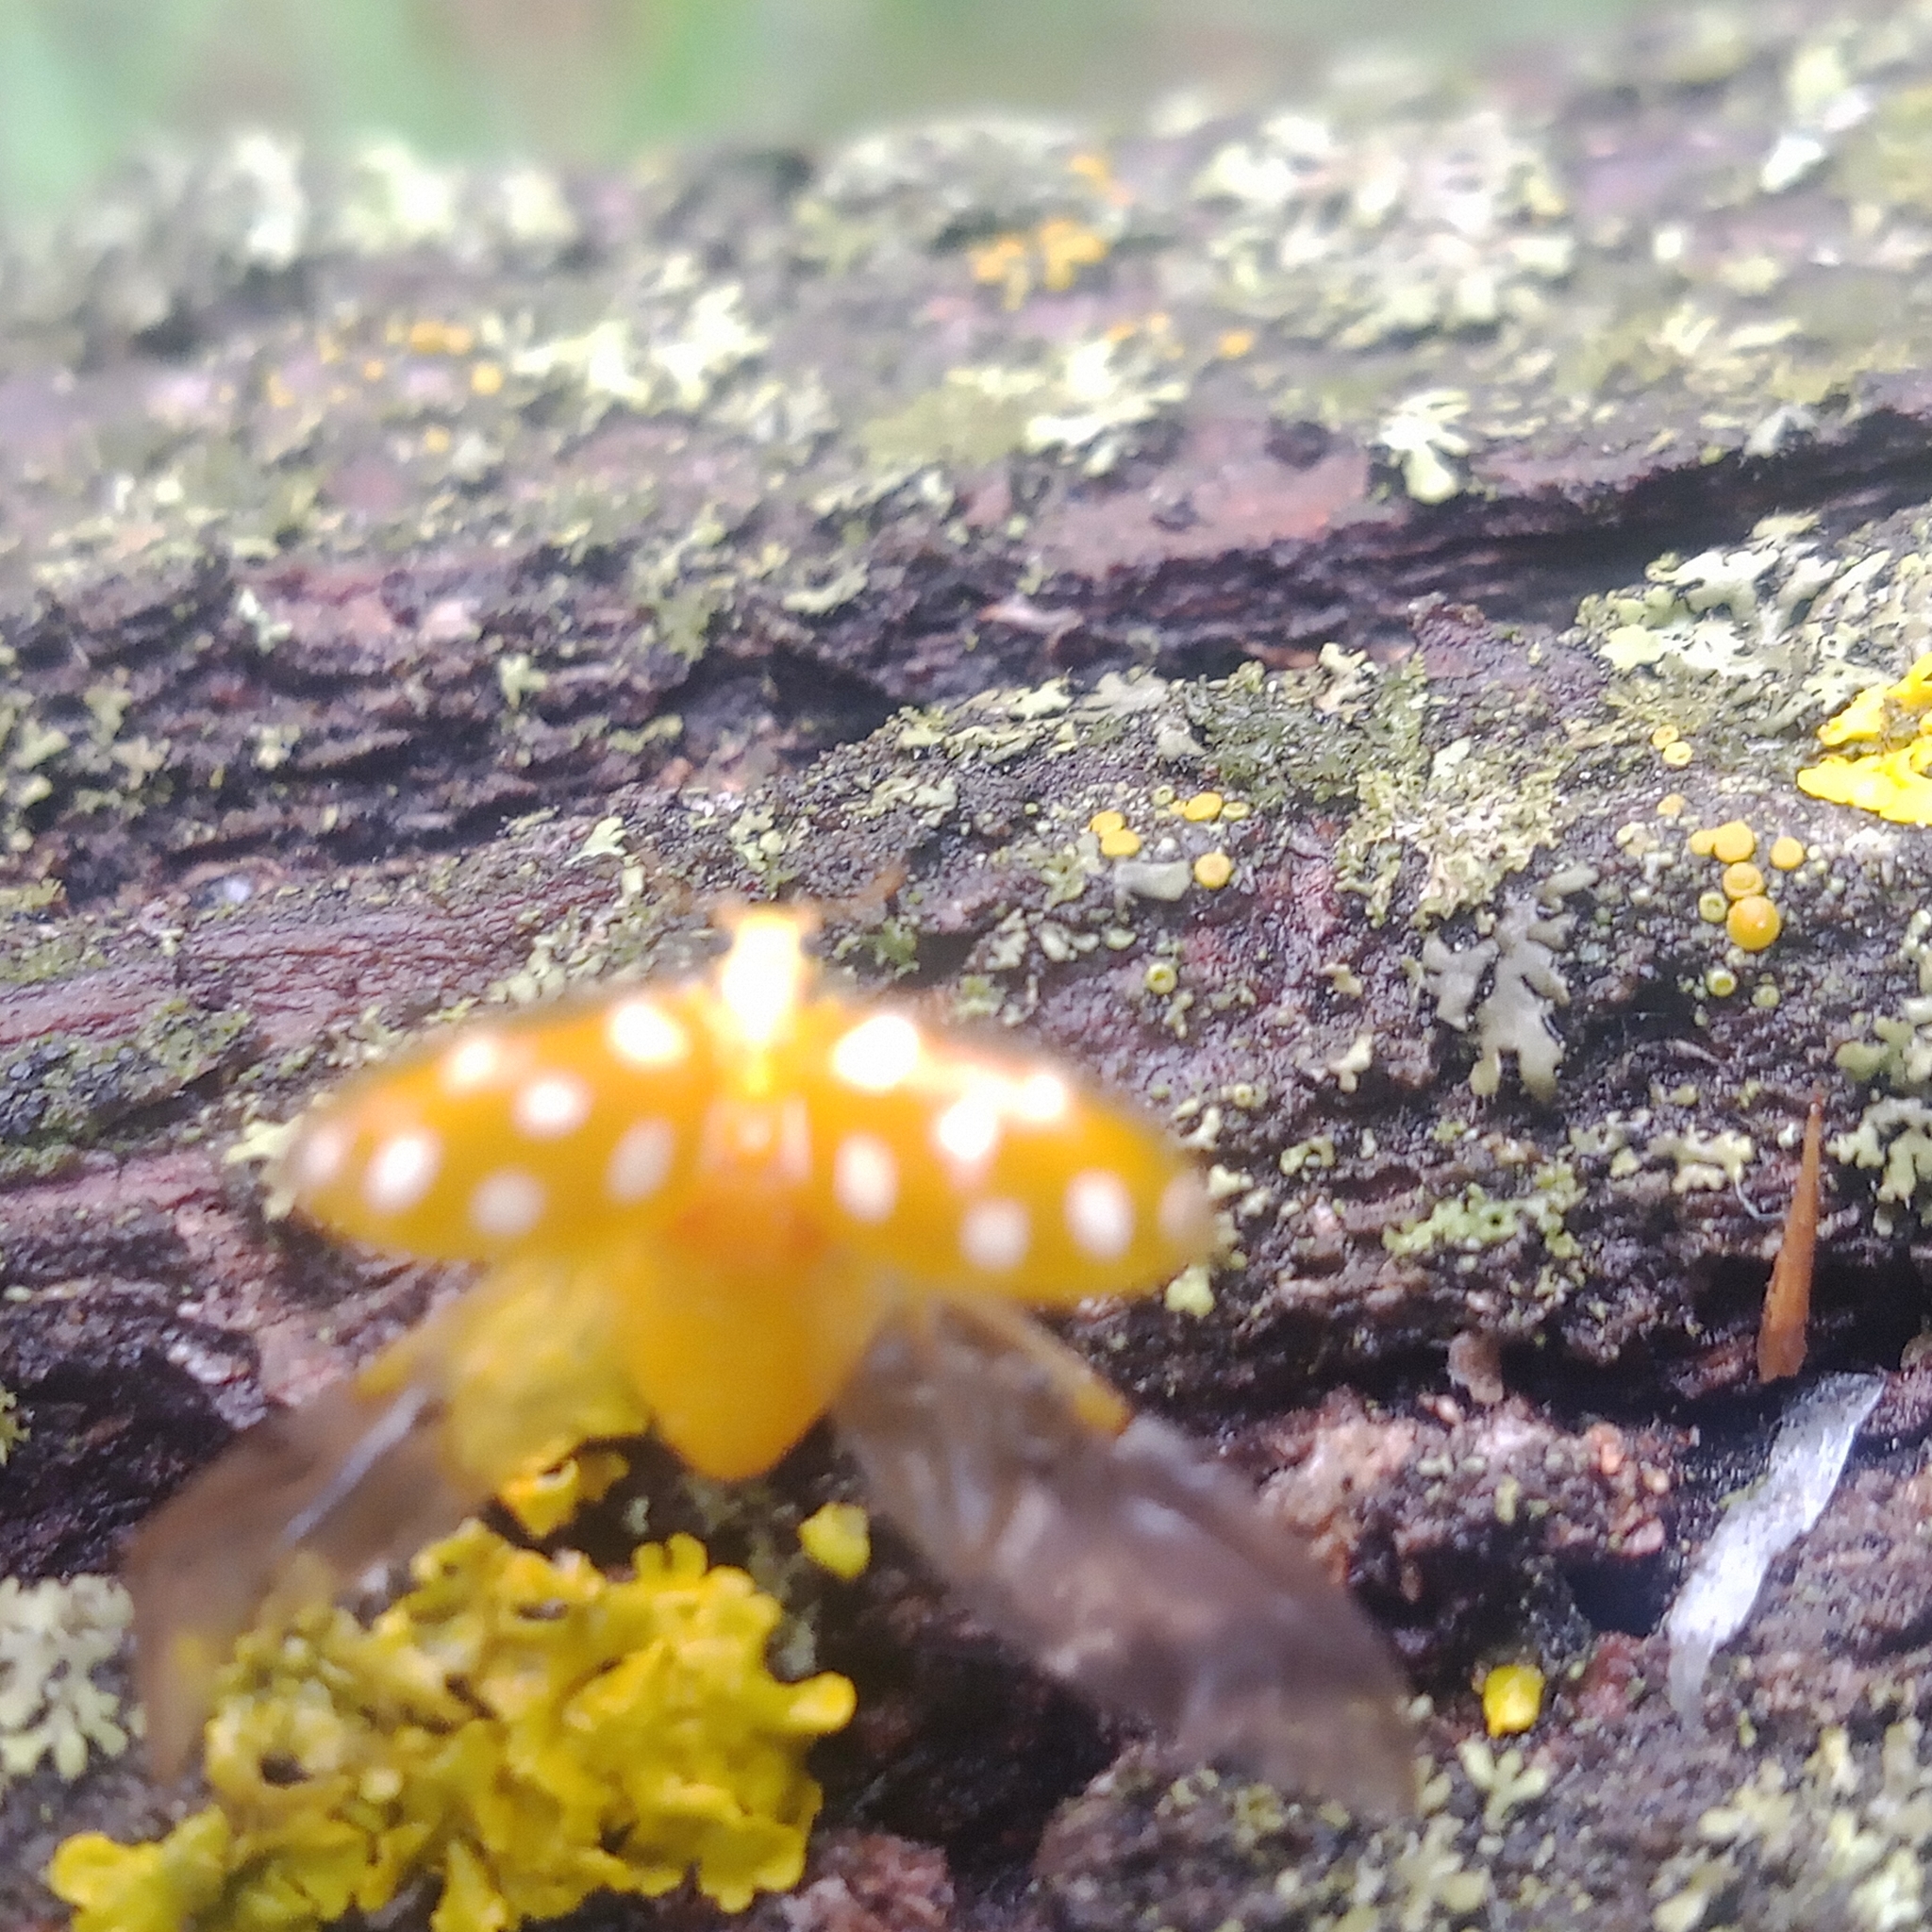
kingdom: Animalia
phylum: Arthropoda
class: Insecta
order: Coleoptera
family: Coccinellidae
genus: Halyzia
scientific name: Halyzia sedecimguttata
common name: Orange ladybird
